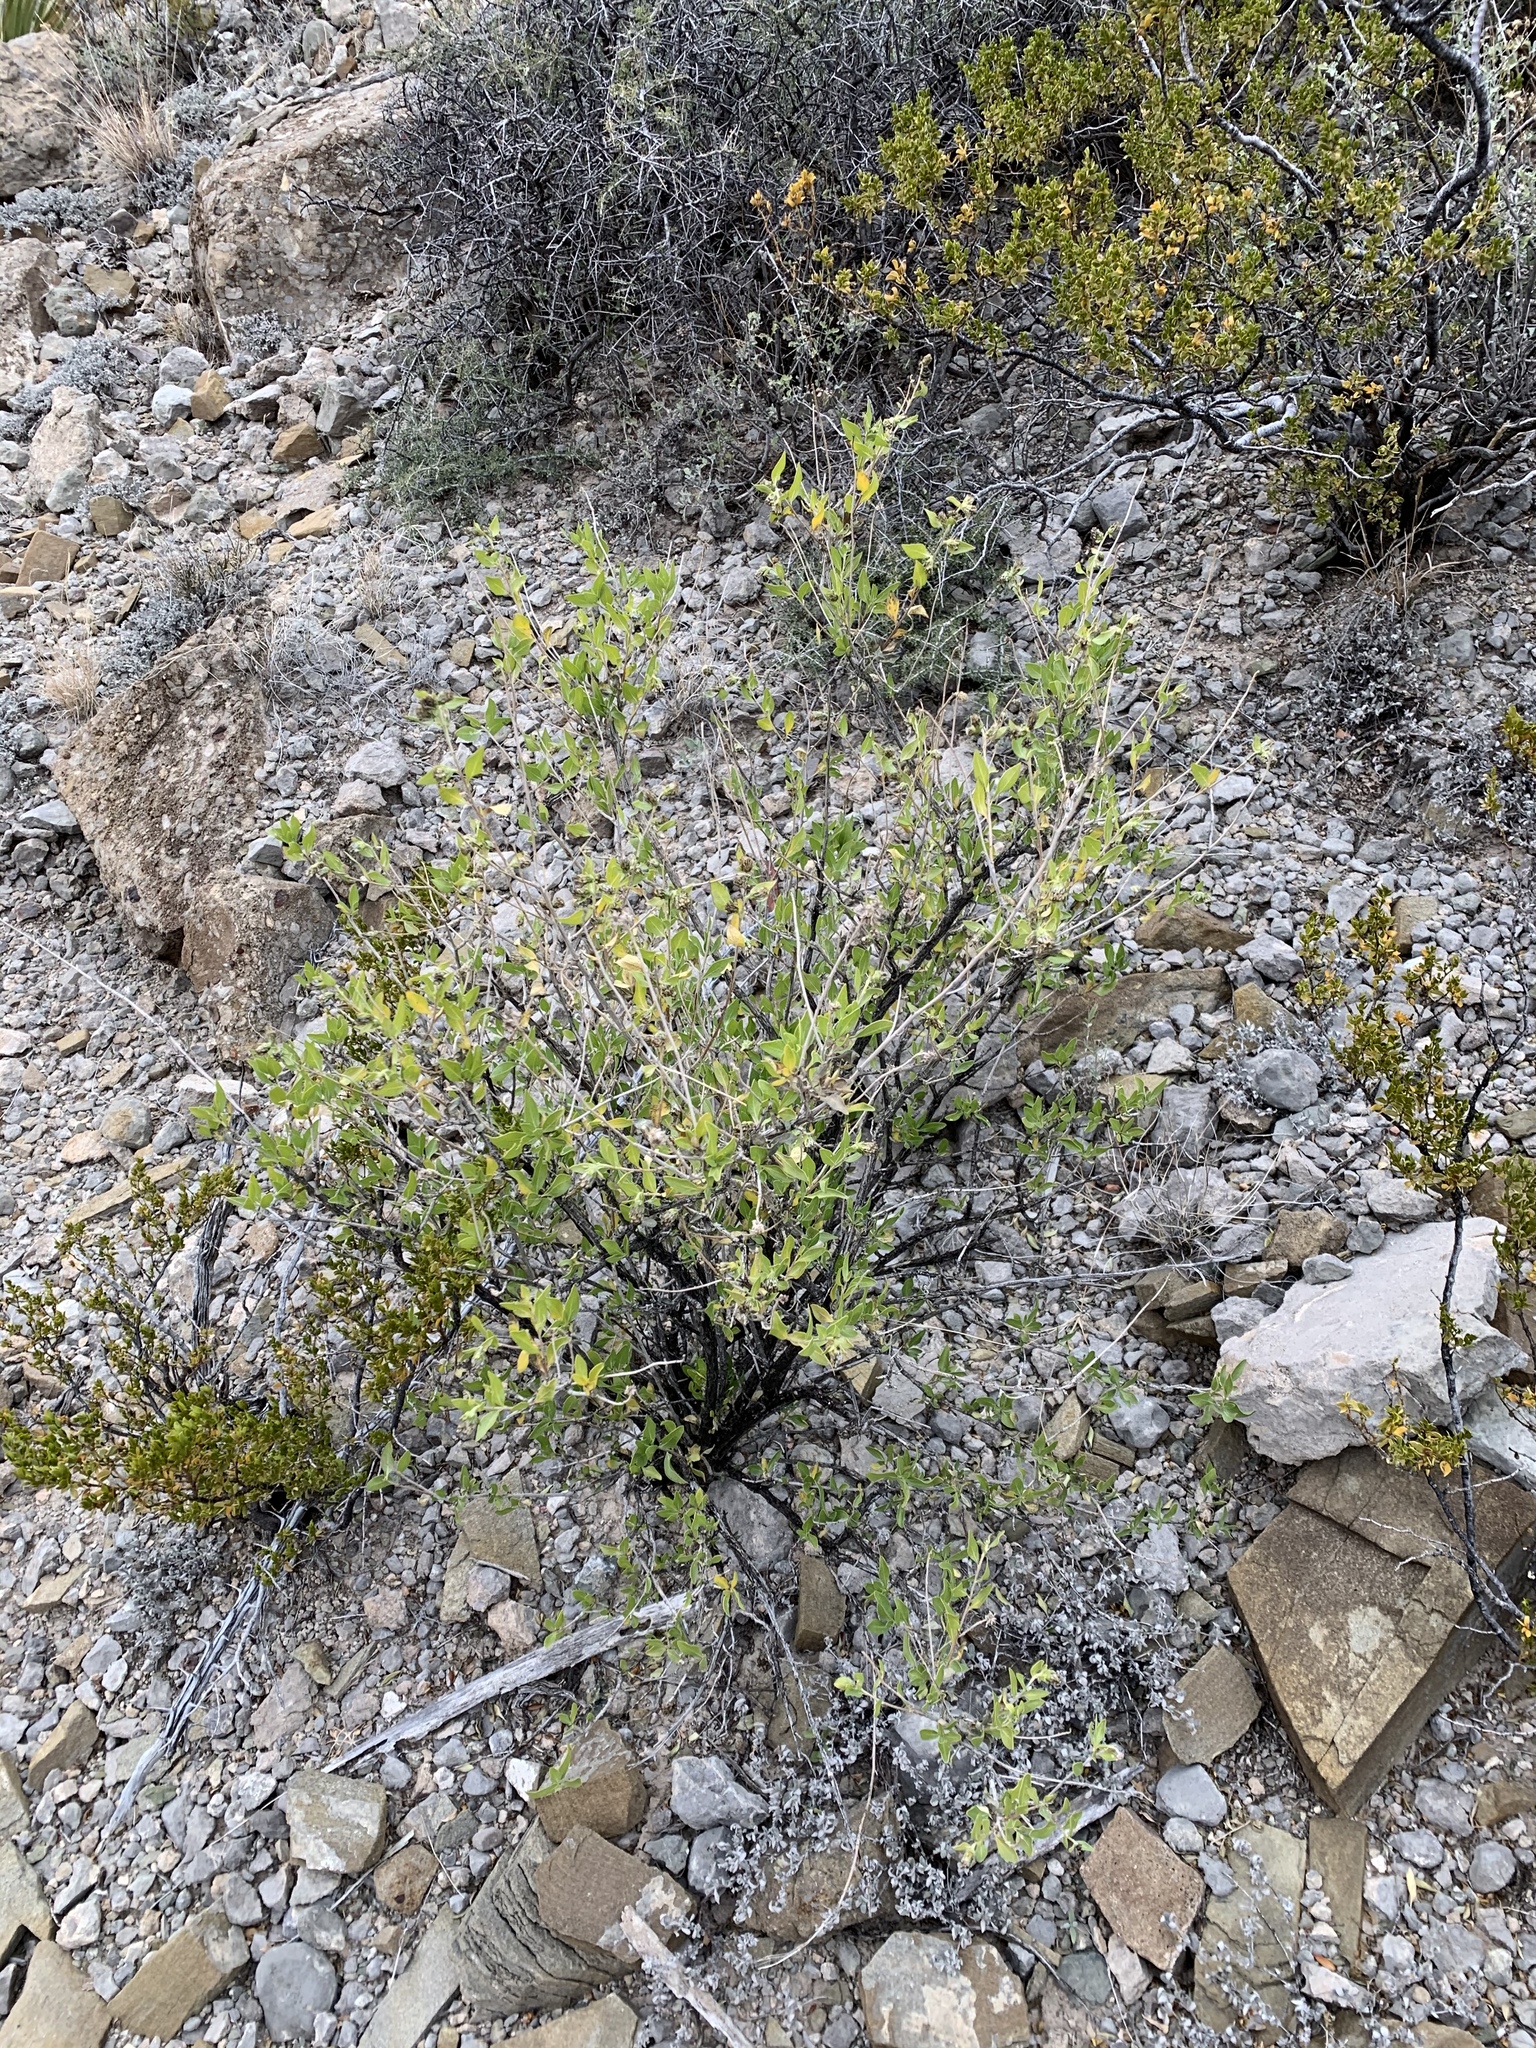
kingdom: Plantae
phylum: Tracheophyta
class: Magnoliopsida
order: Asterales
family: Asteraceae
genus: Flourensia
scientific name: Flourensia cernua
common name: Varnishbush
